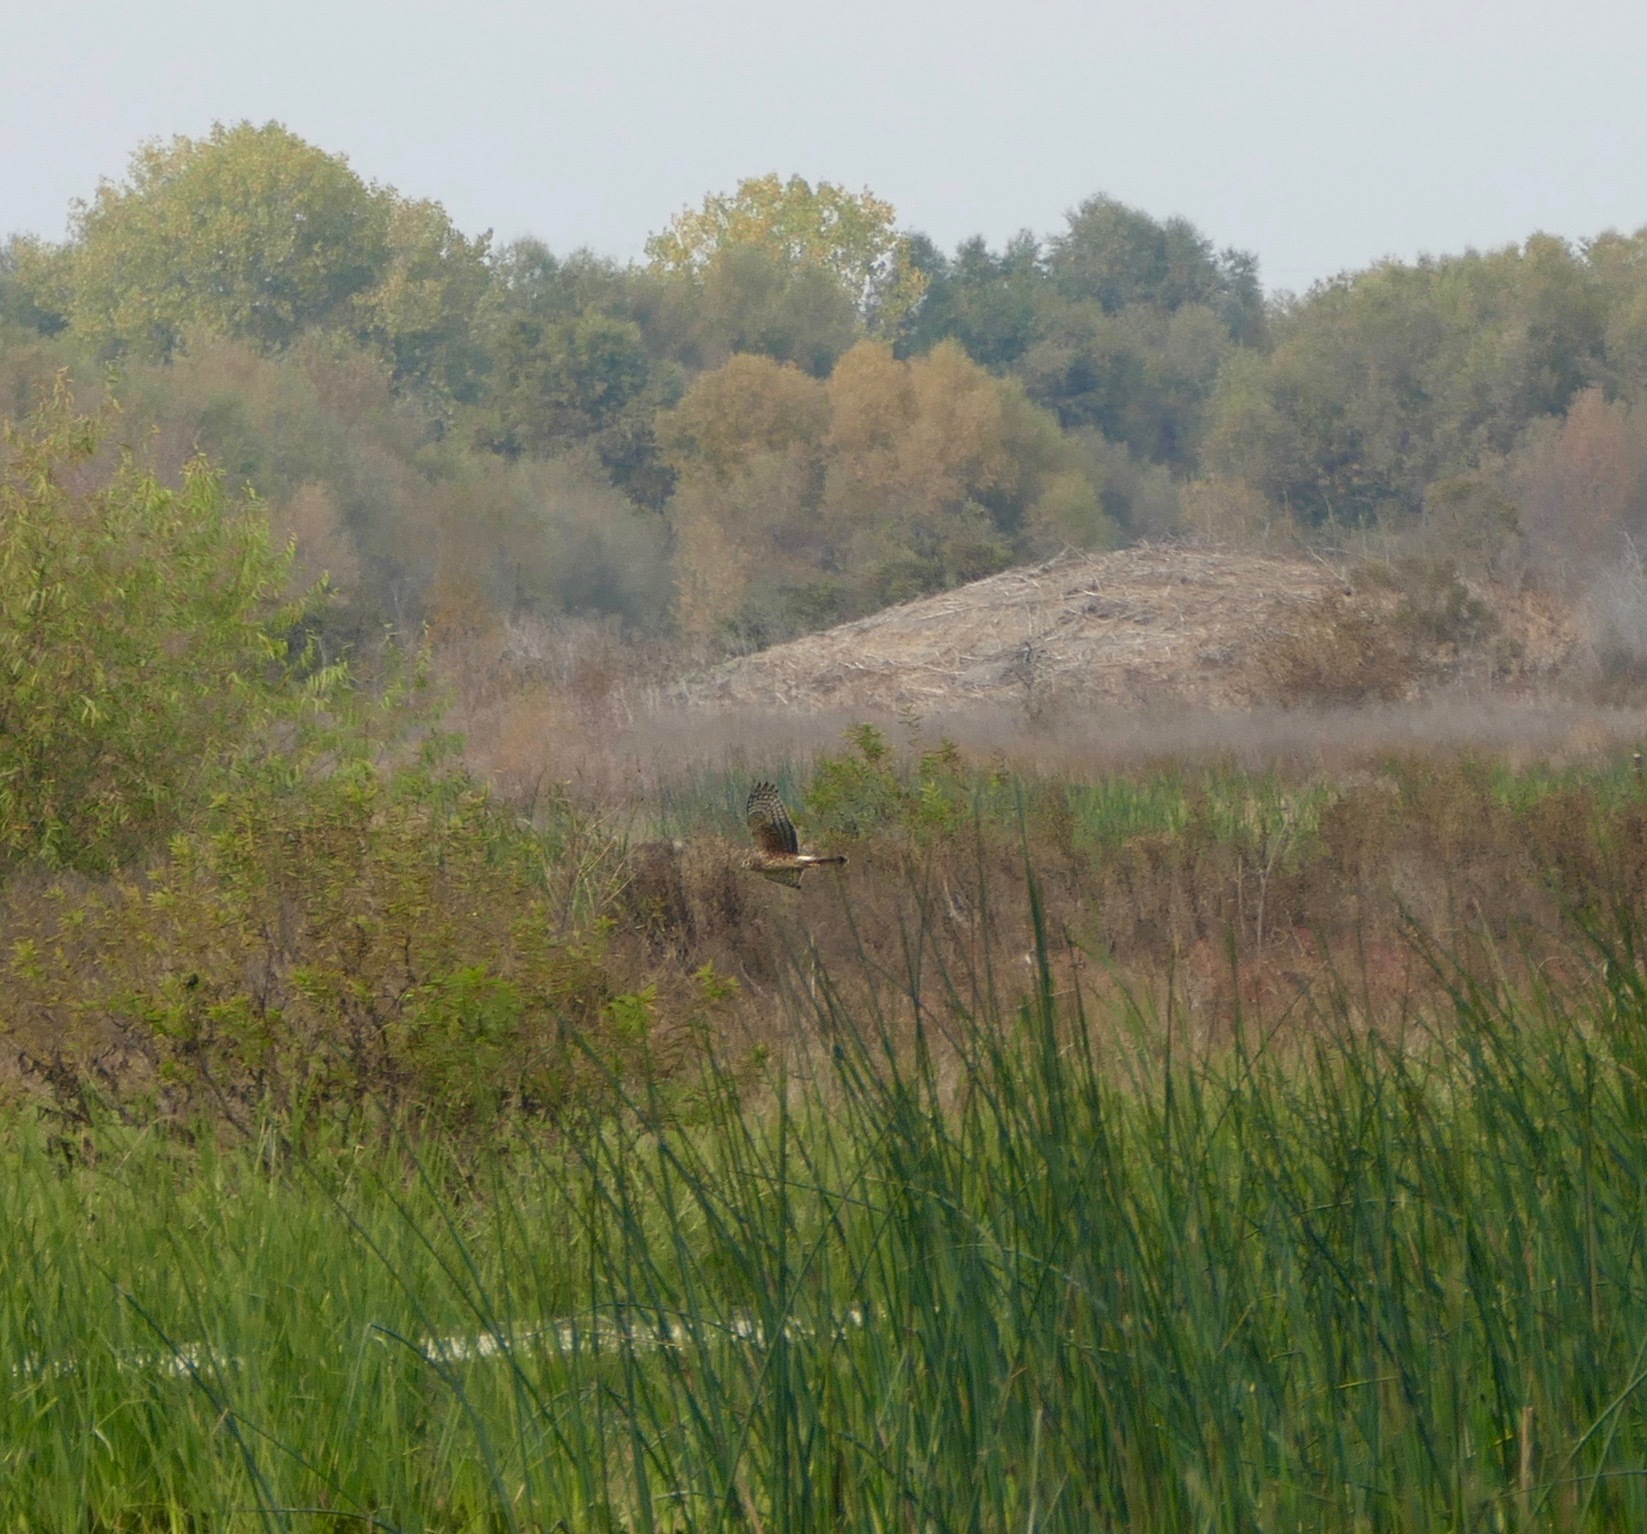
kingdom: Animalia
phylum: Chordata
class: Aves
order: Accipitriformes
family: Accipitridae
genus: Circus
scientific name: Circus cyaneus
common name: Hen harrier
